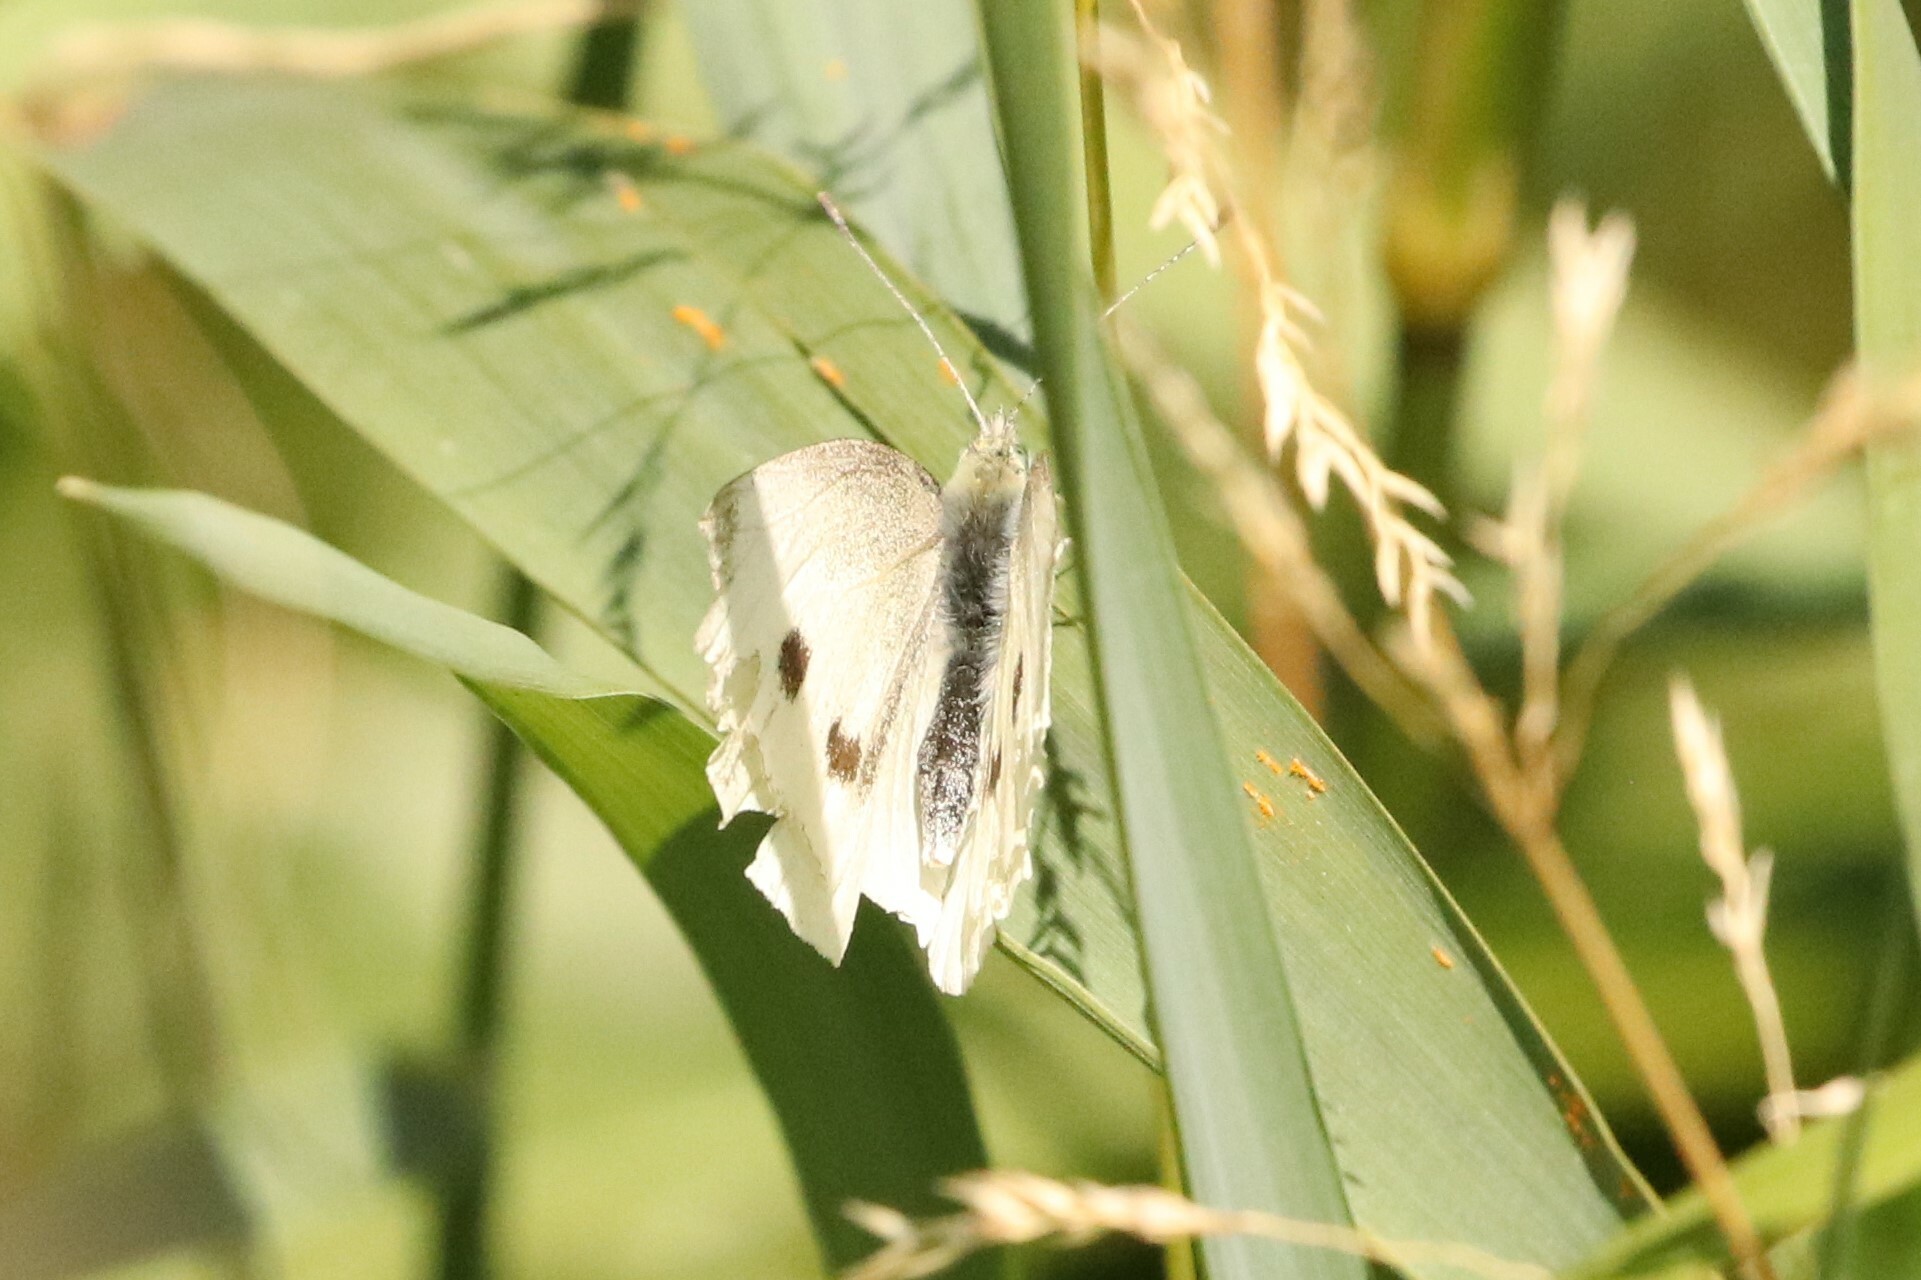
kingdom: Animalia
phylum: Arthropoda
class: Insecta
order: Lepidoptera
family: Pieridae
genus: Pieris
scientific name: Pieris rapae
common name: Small white
